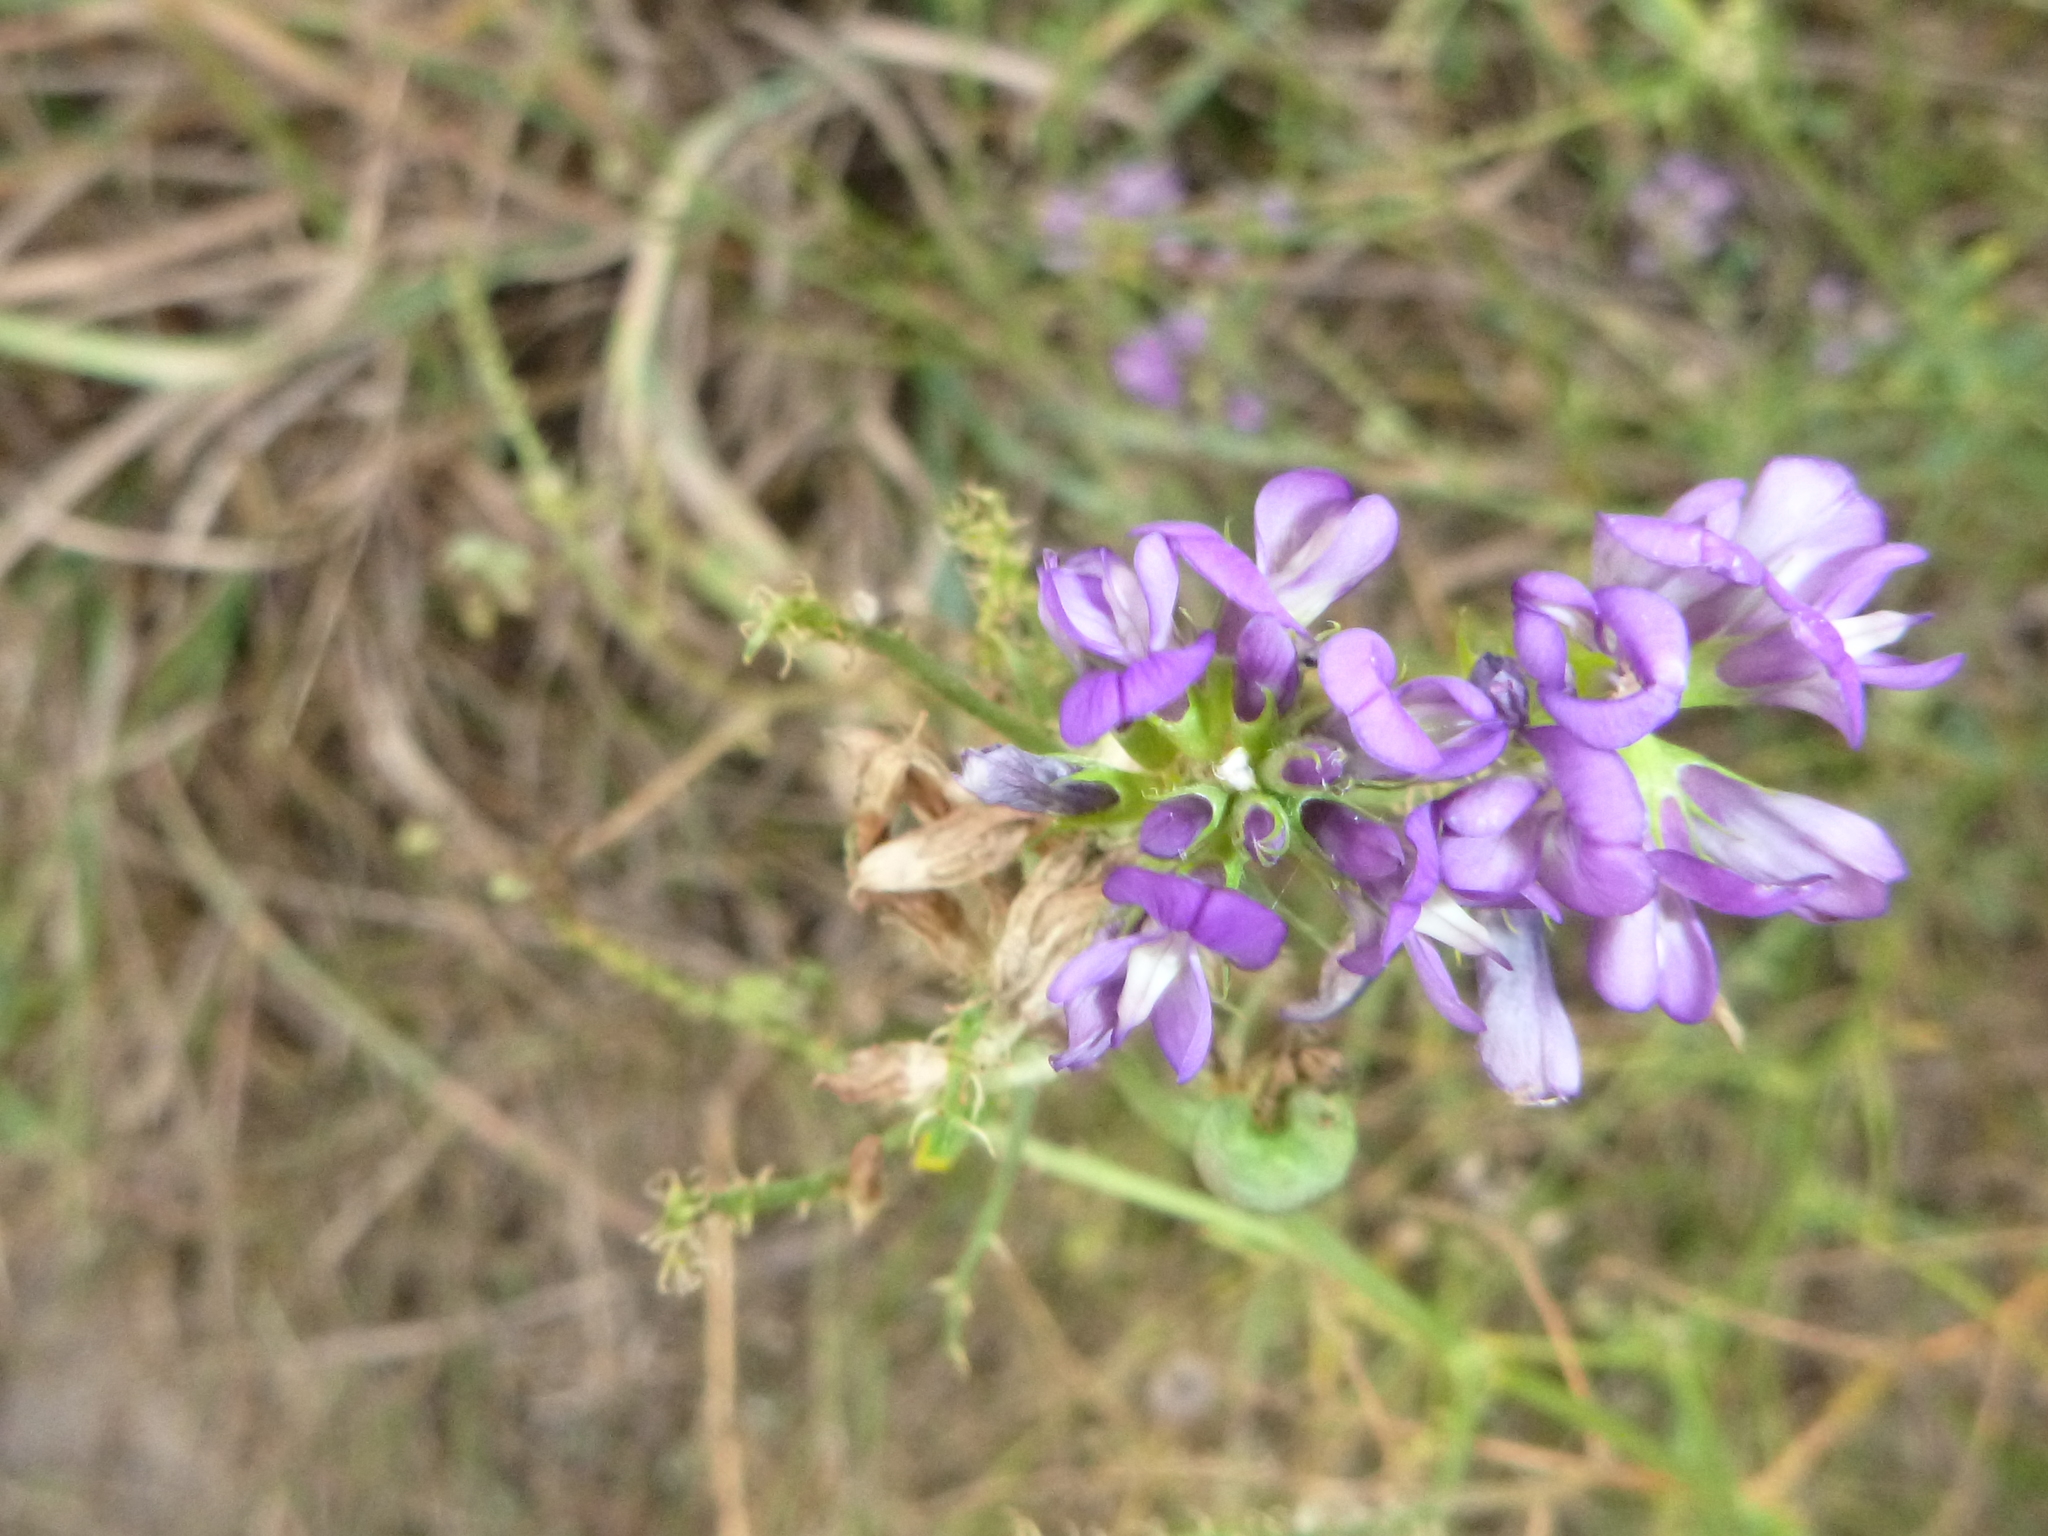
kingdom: Plantae
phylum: Tracheophyta
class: Magnoliopsida
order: Fabales
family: Fabaceae
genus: Medicago
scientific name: Medicago sativa
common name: Alfalfa
